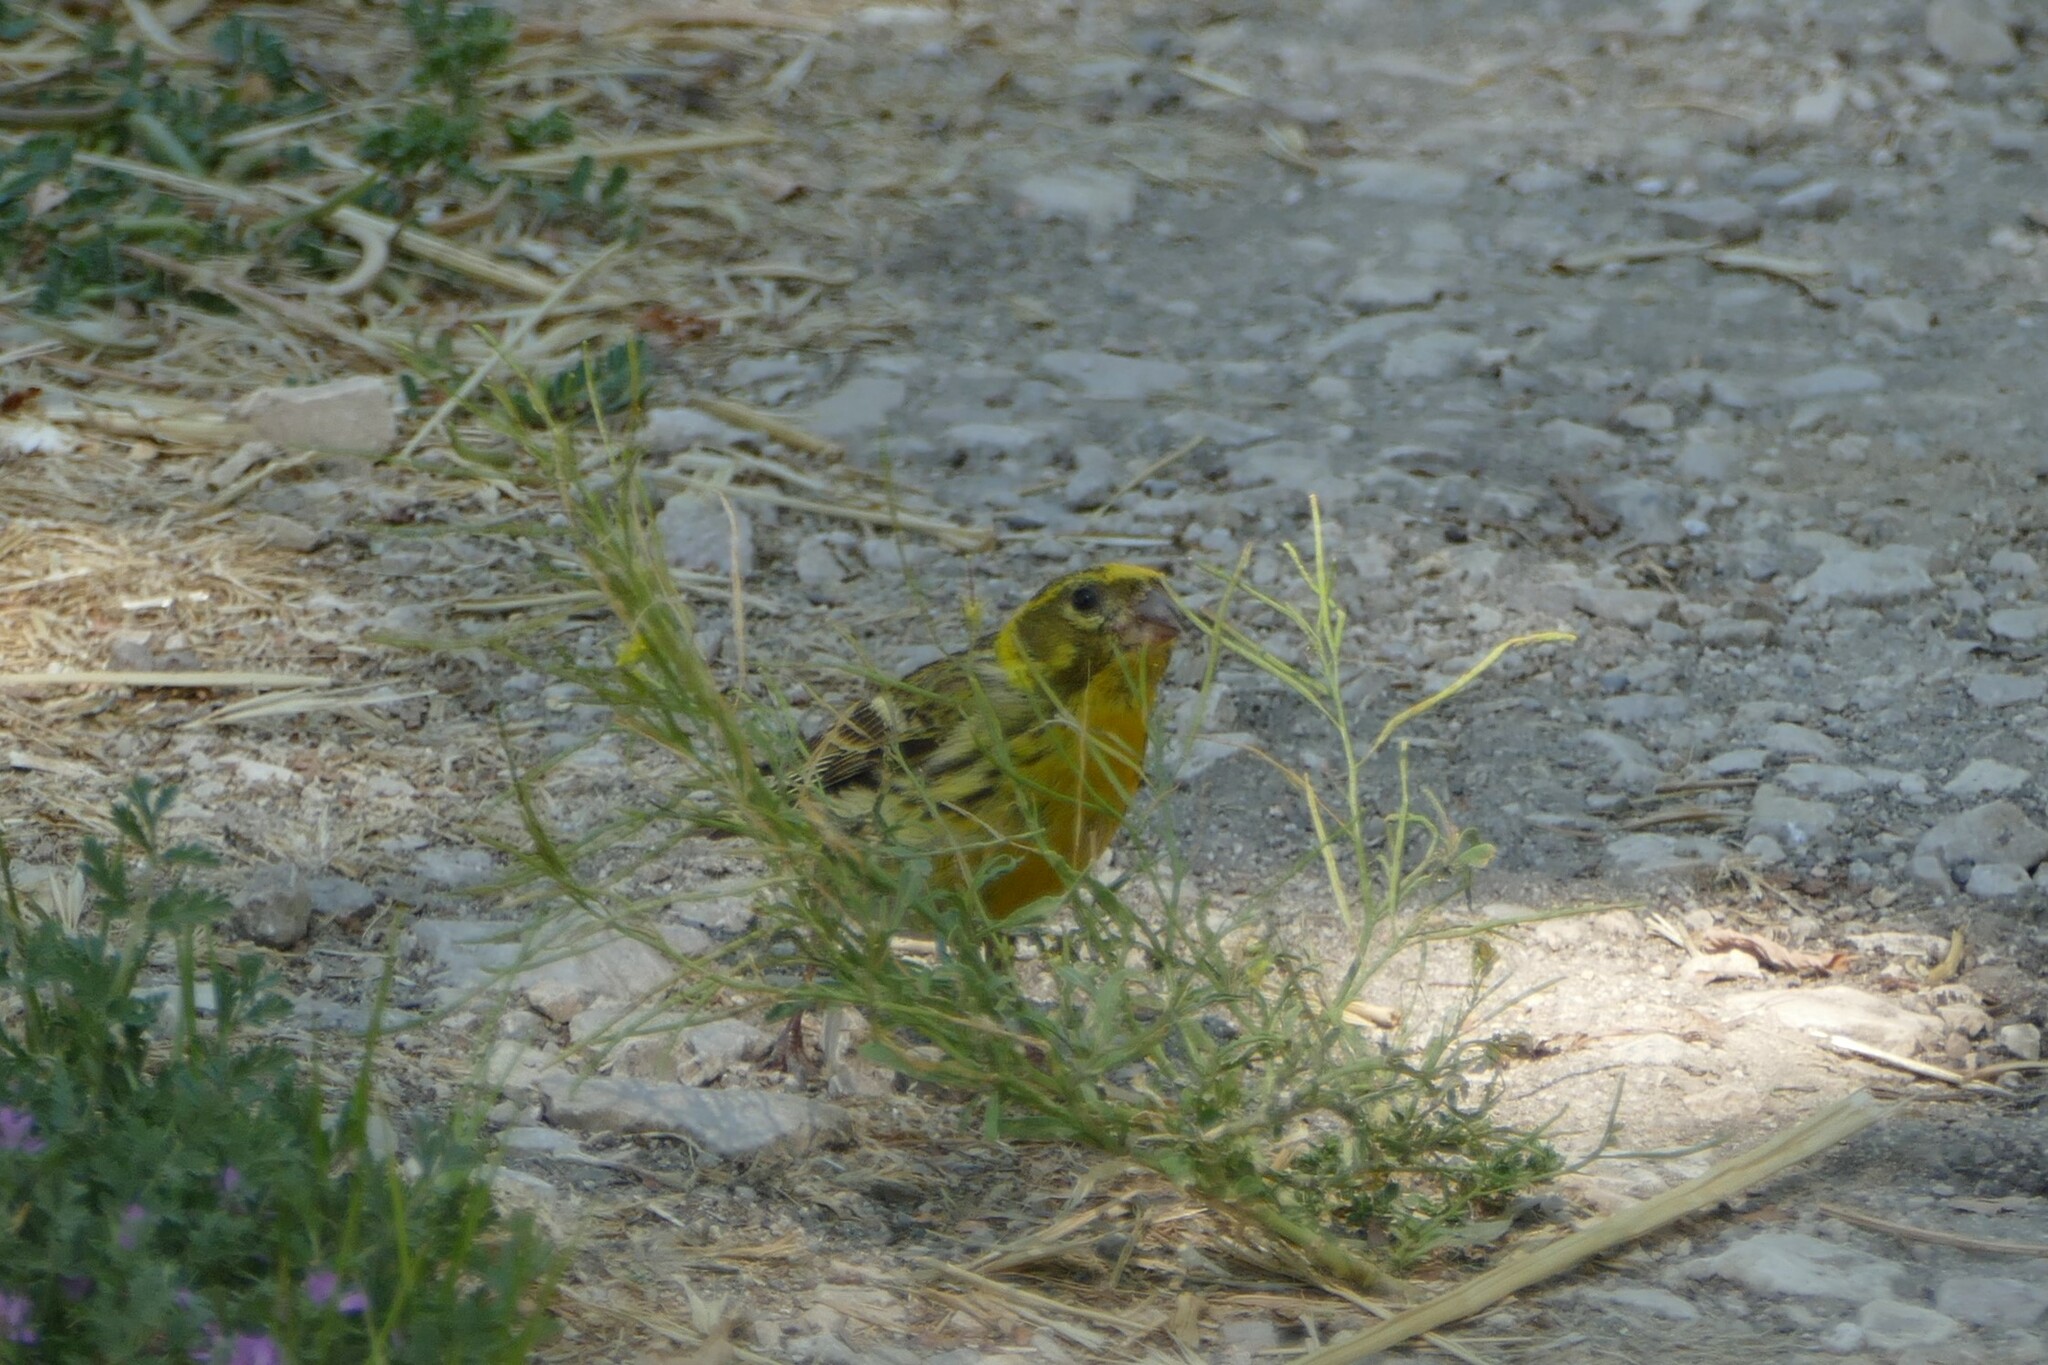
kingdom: Animalia
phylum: Chordata
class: Aves
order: Passeriformes
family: Fringillidae
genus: Serinus
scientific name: Serinus serinus
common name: European serin
